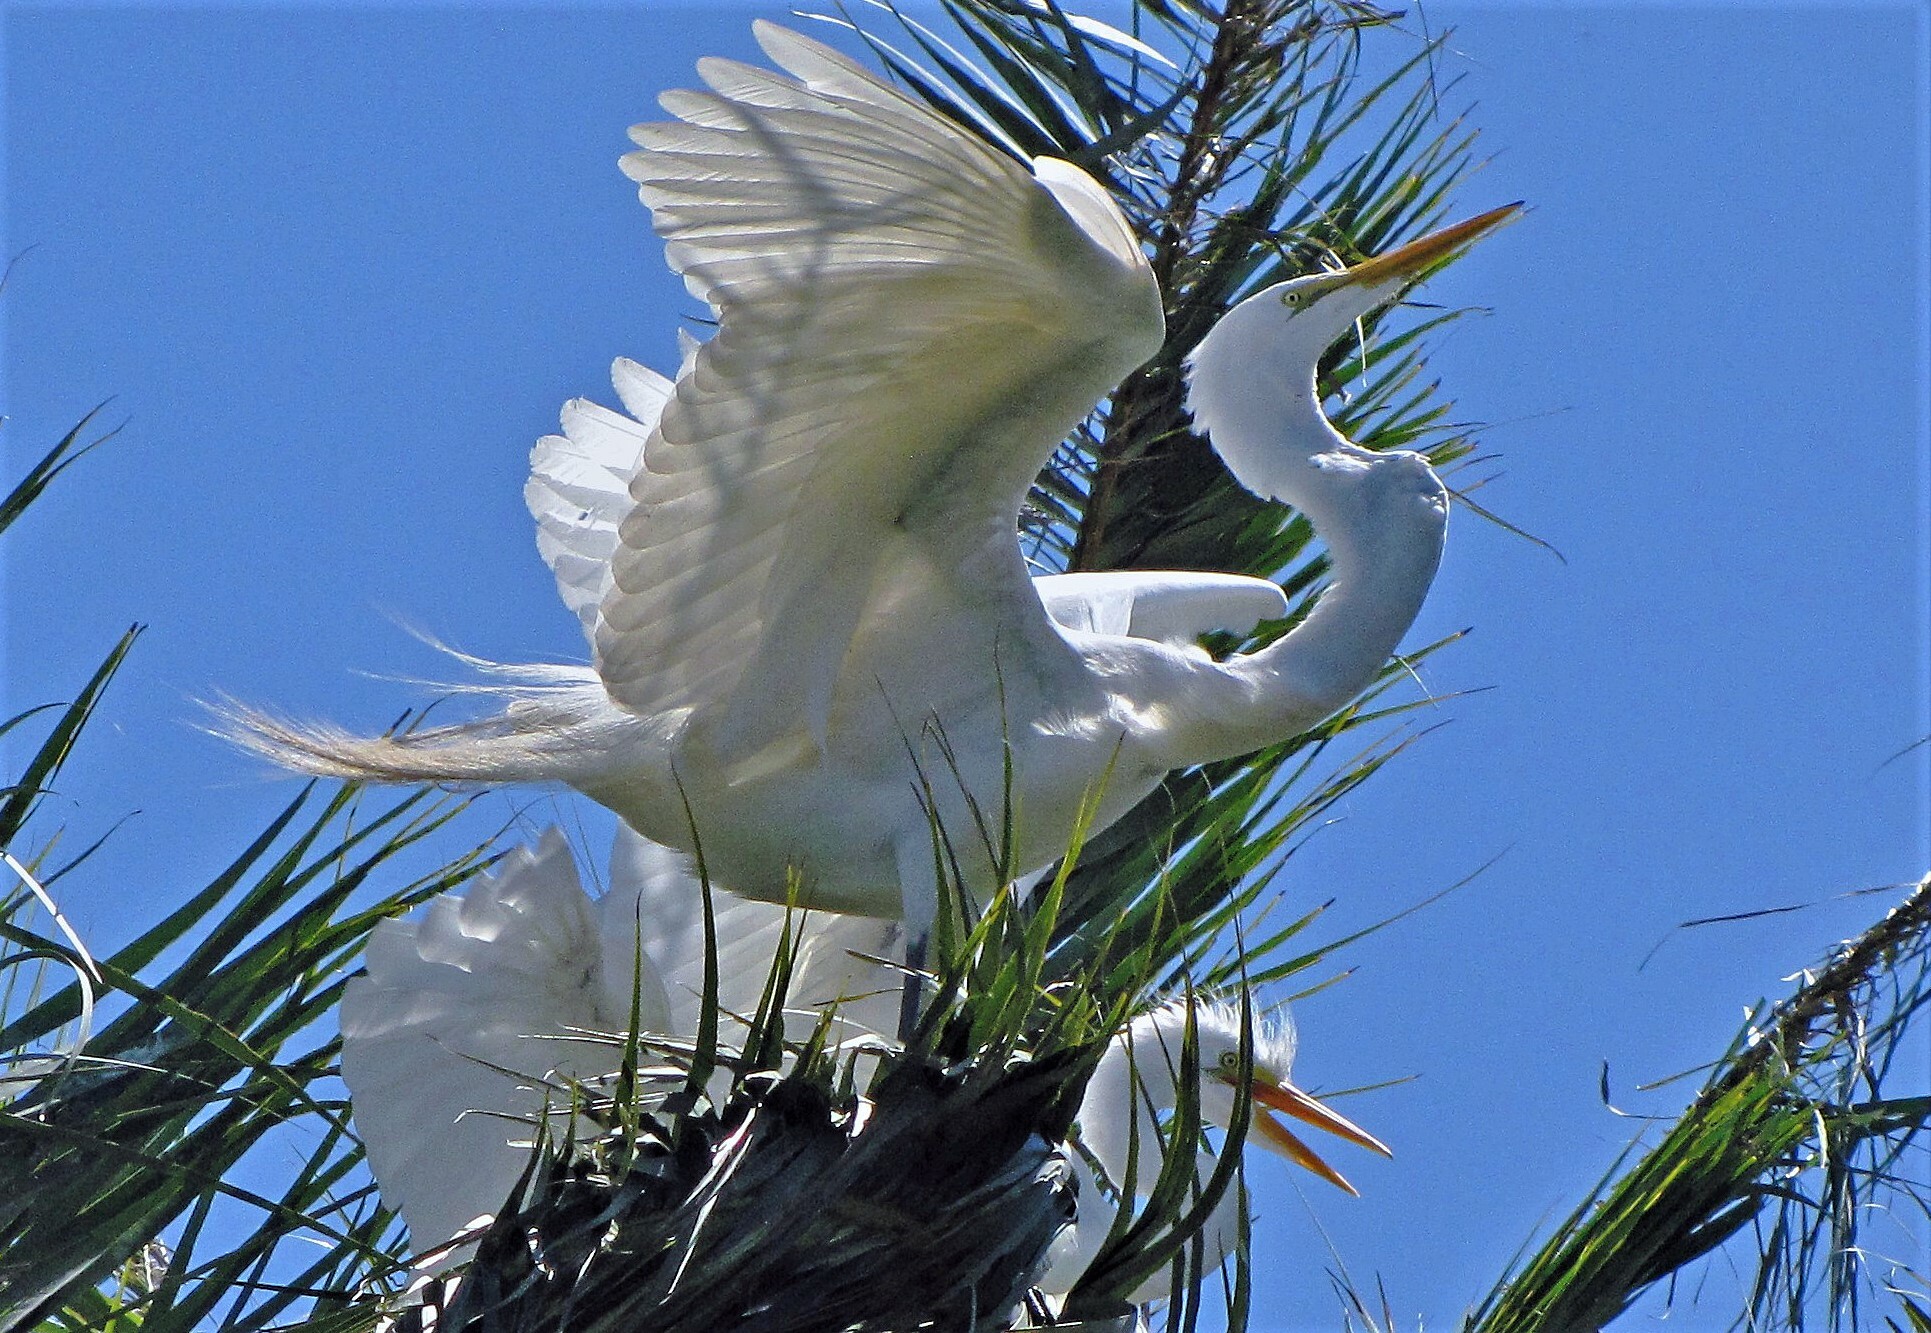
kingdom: Animalia
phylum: Chordata
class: Aves
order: Pelecaniformes
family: Ardeidae
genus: Ardea
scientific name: Ardea alba
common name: Great egret
